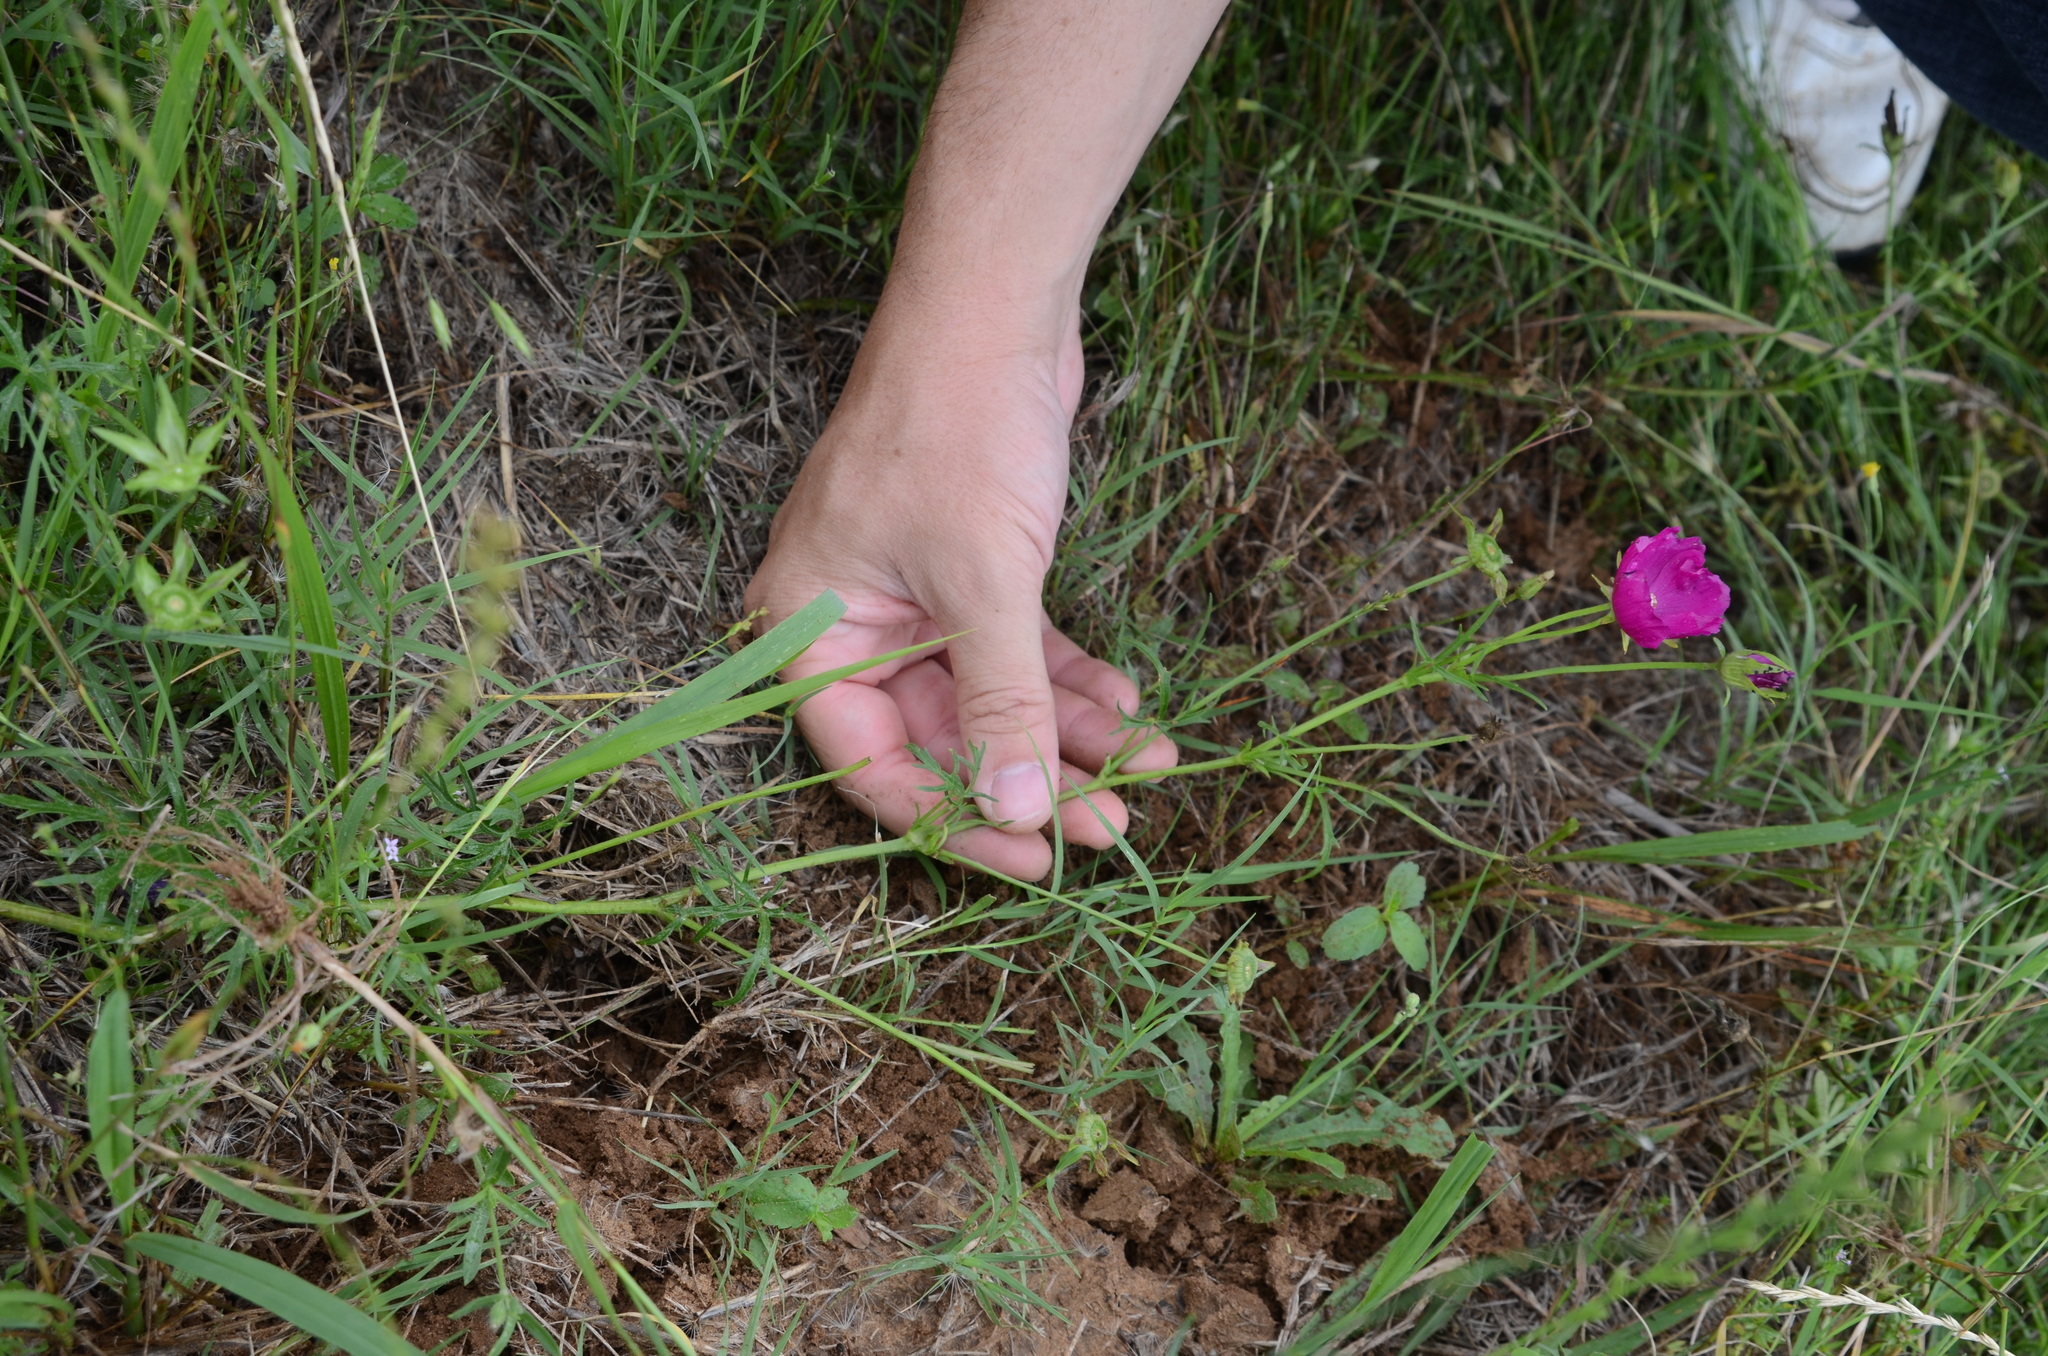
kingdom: Plantae
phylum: Tracheophyta
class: Magnoliopsida
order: Malvales
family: Malvaceae
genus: Callirhoe
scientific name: Callirhoe involucrata
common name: Purple poppy-mallow
